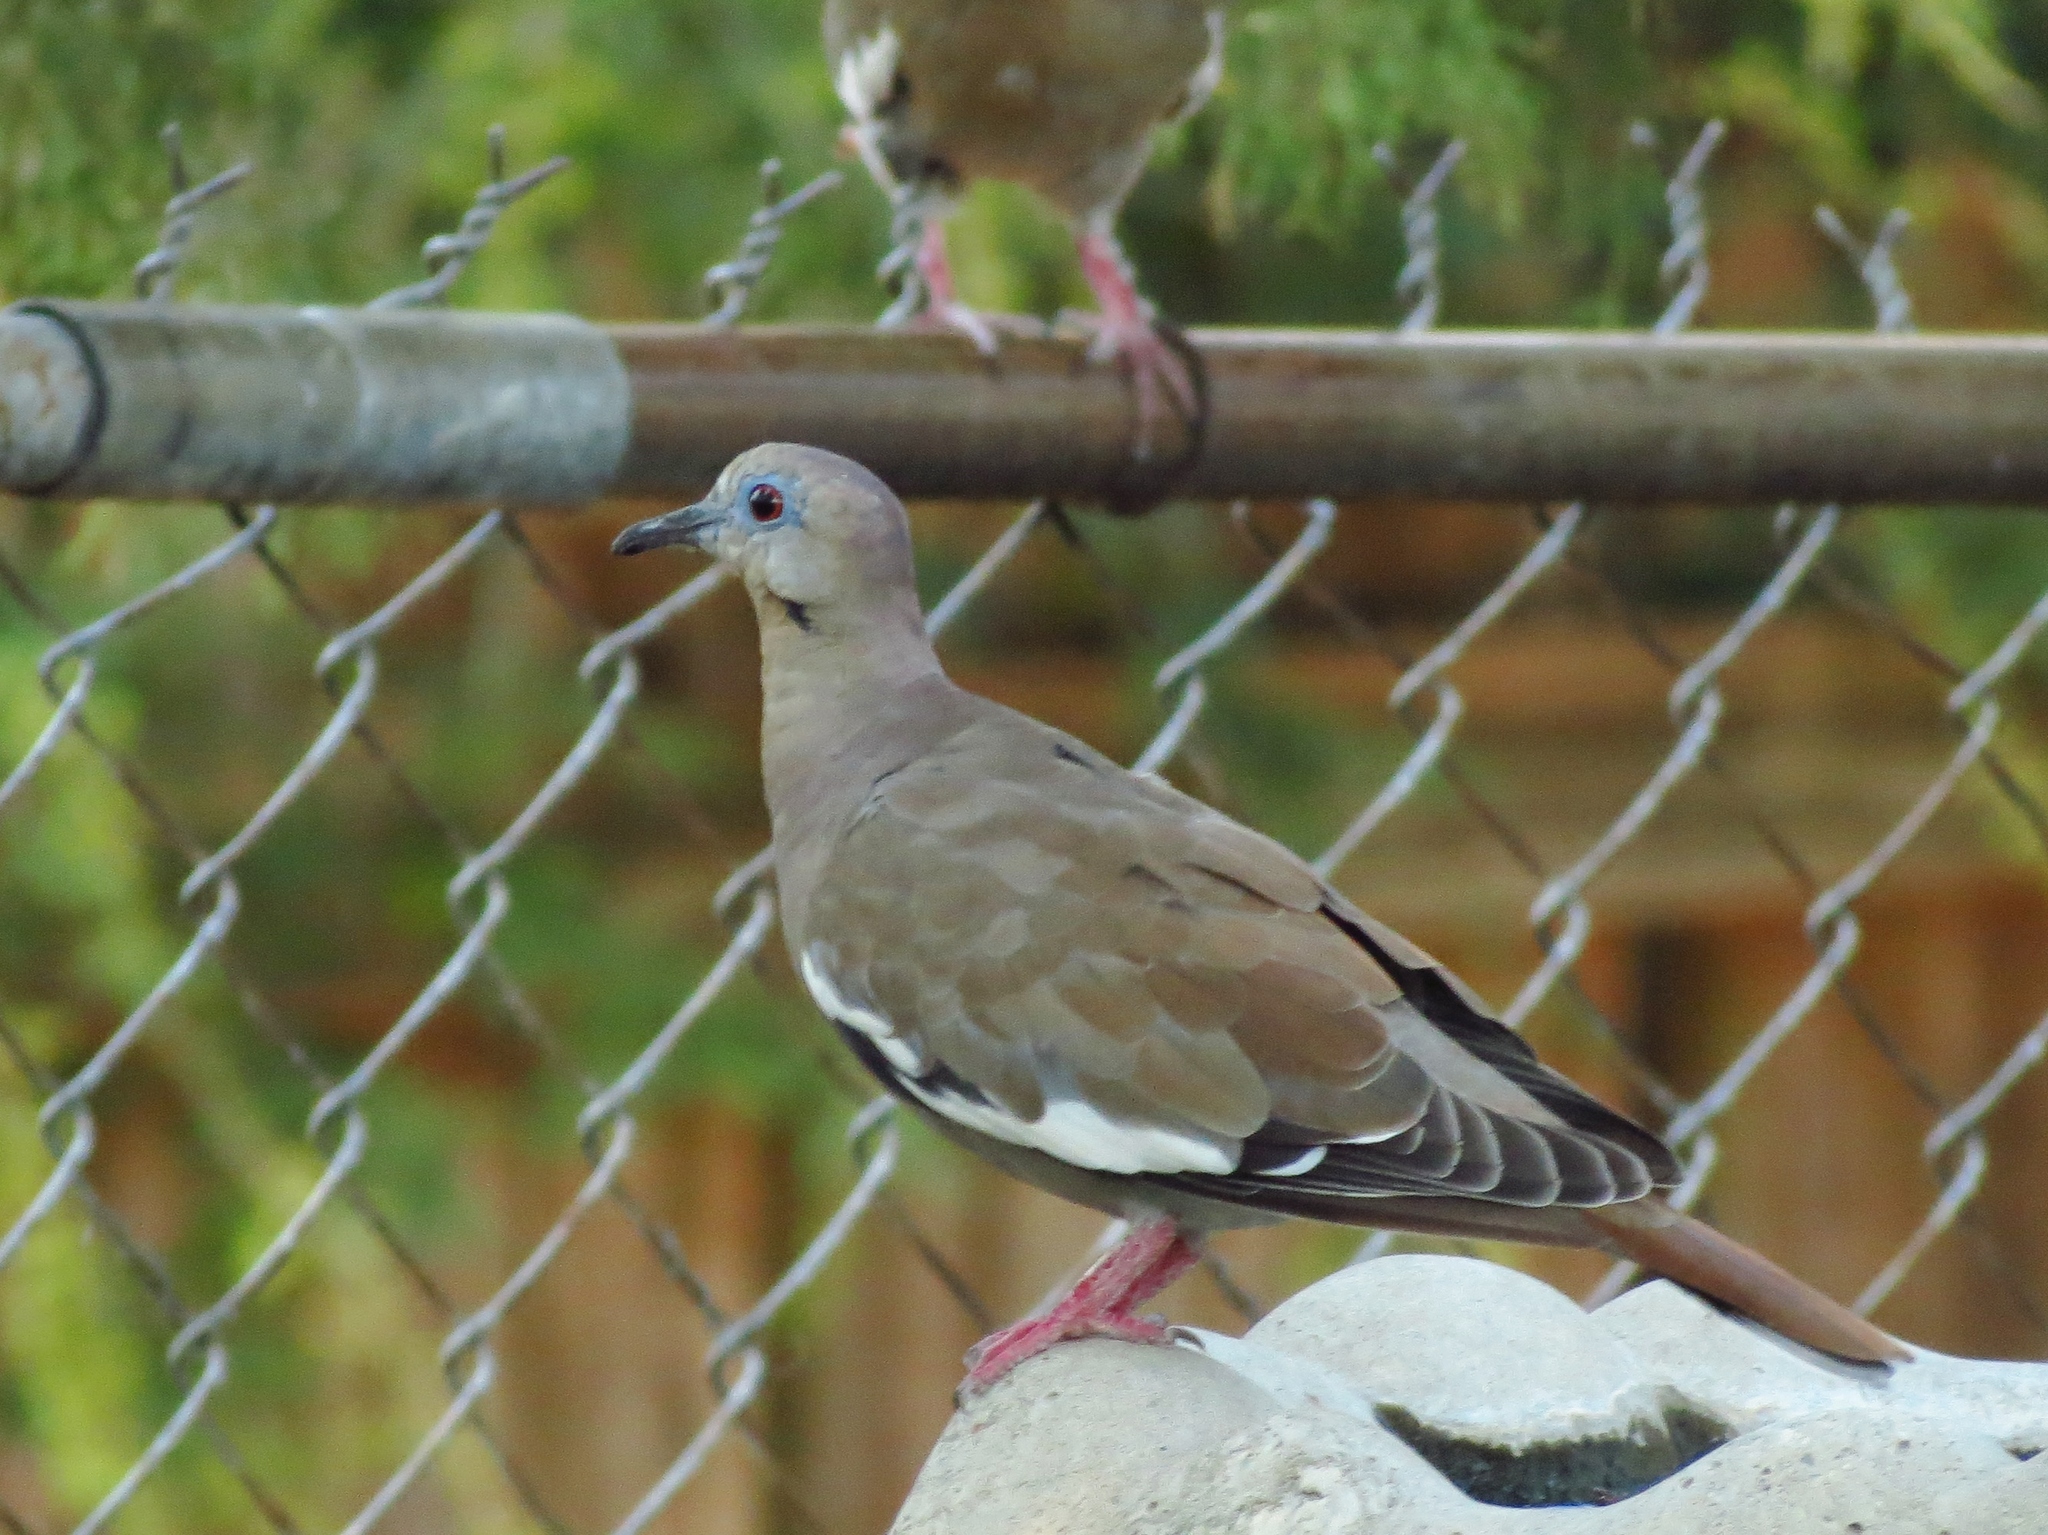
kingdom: Animalia
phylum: Chordata
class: Aves
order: Columbiformes
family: Columbidae
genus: Zenaida
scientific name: Zenaida asiatica
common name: White-winged dove
